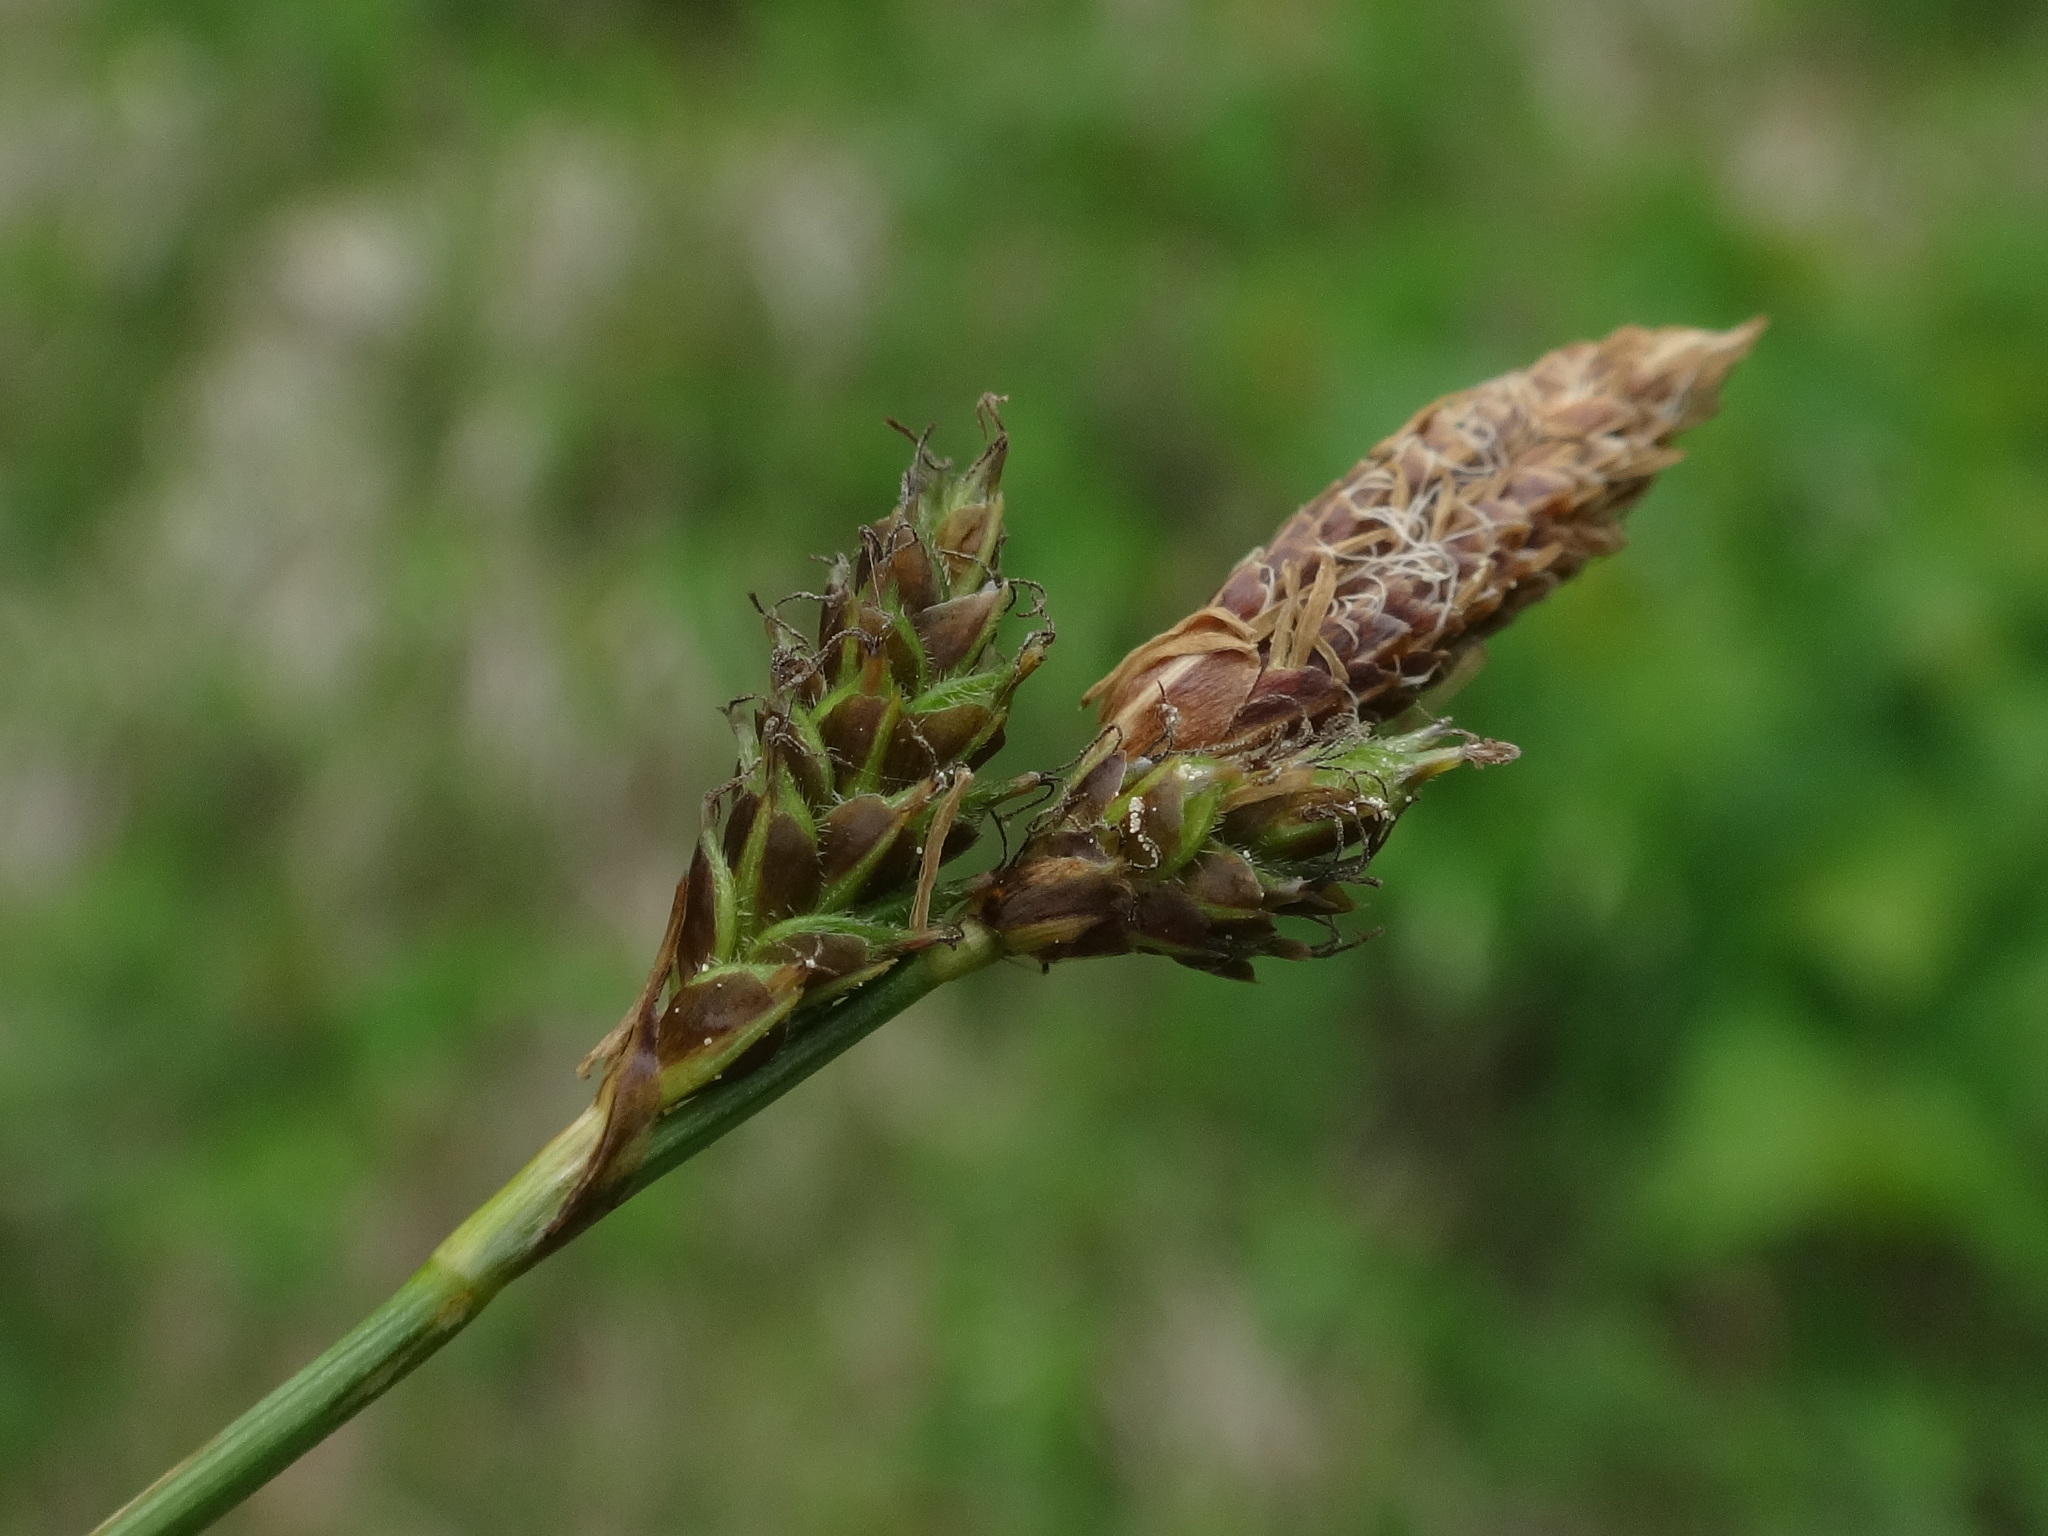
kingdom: Plantae
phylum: Tracheophyta
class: Liliopsida
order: Poales
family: Cyperaceae
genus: Carex
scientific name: Carex caryophyllea
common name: Spring sedge
